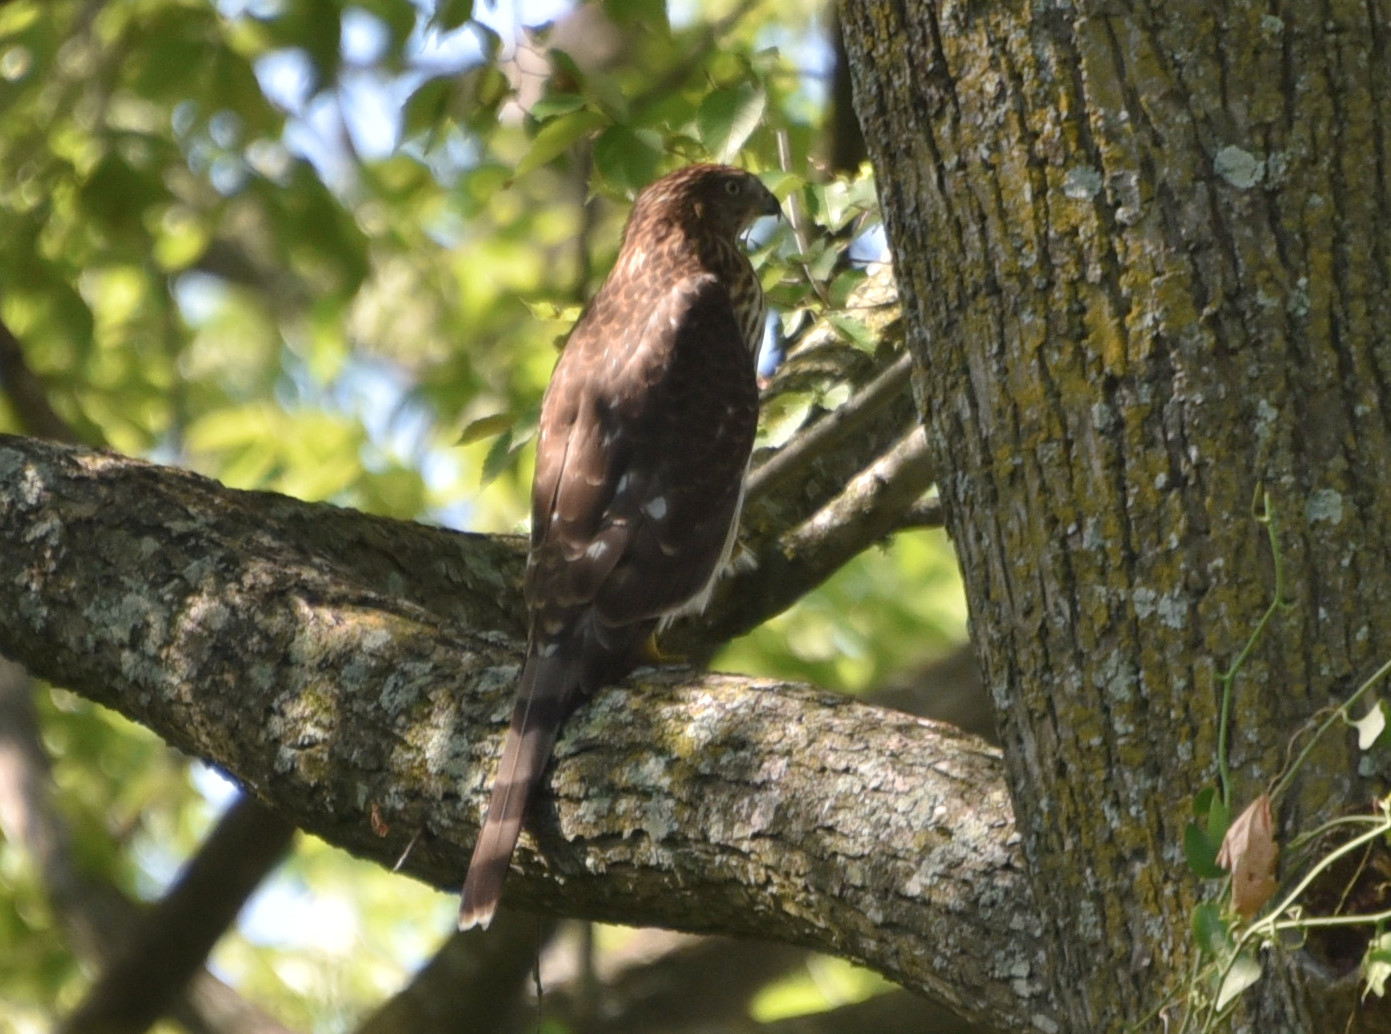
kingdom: Animalia
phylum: Chordata
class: Aves
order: Accipitriformes
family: Accipitridae
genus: Accipiter
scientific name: Accipiter cooperii
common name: Cooper's hawk
